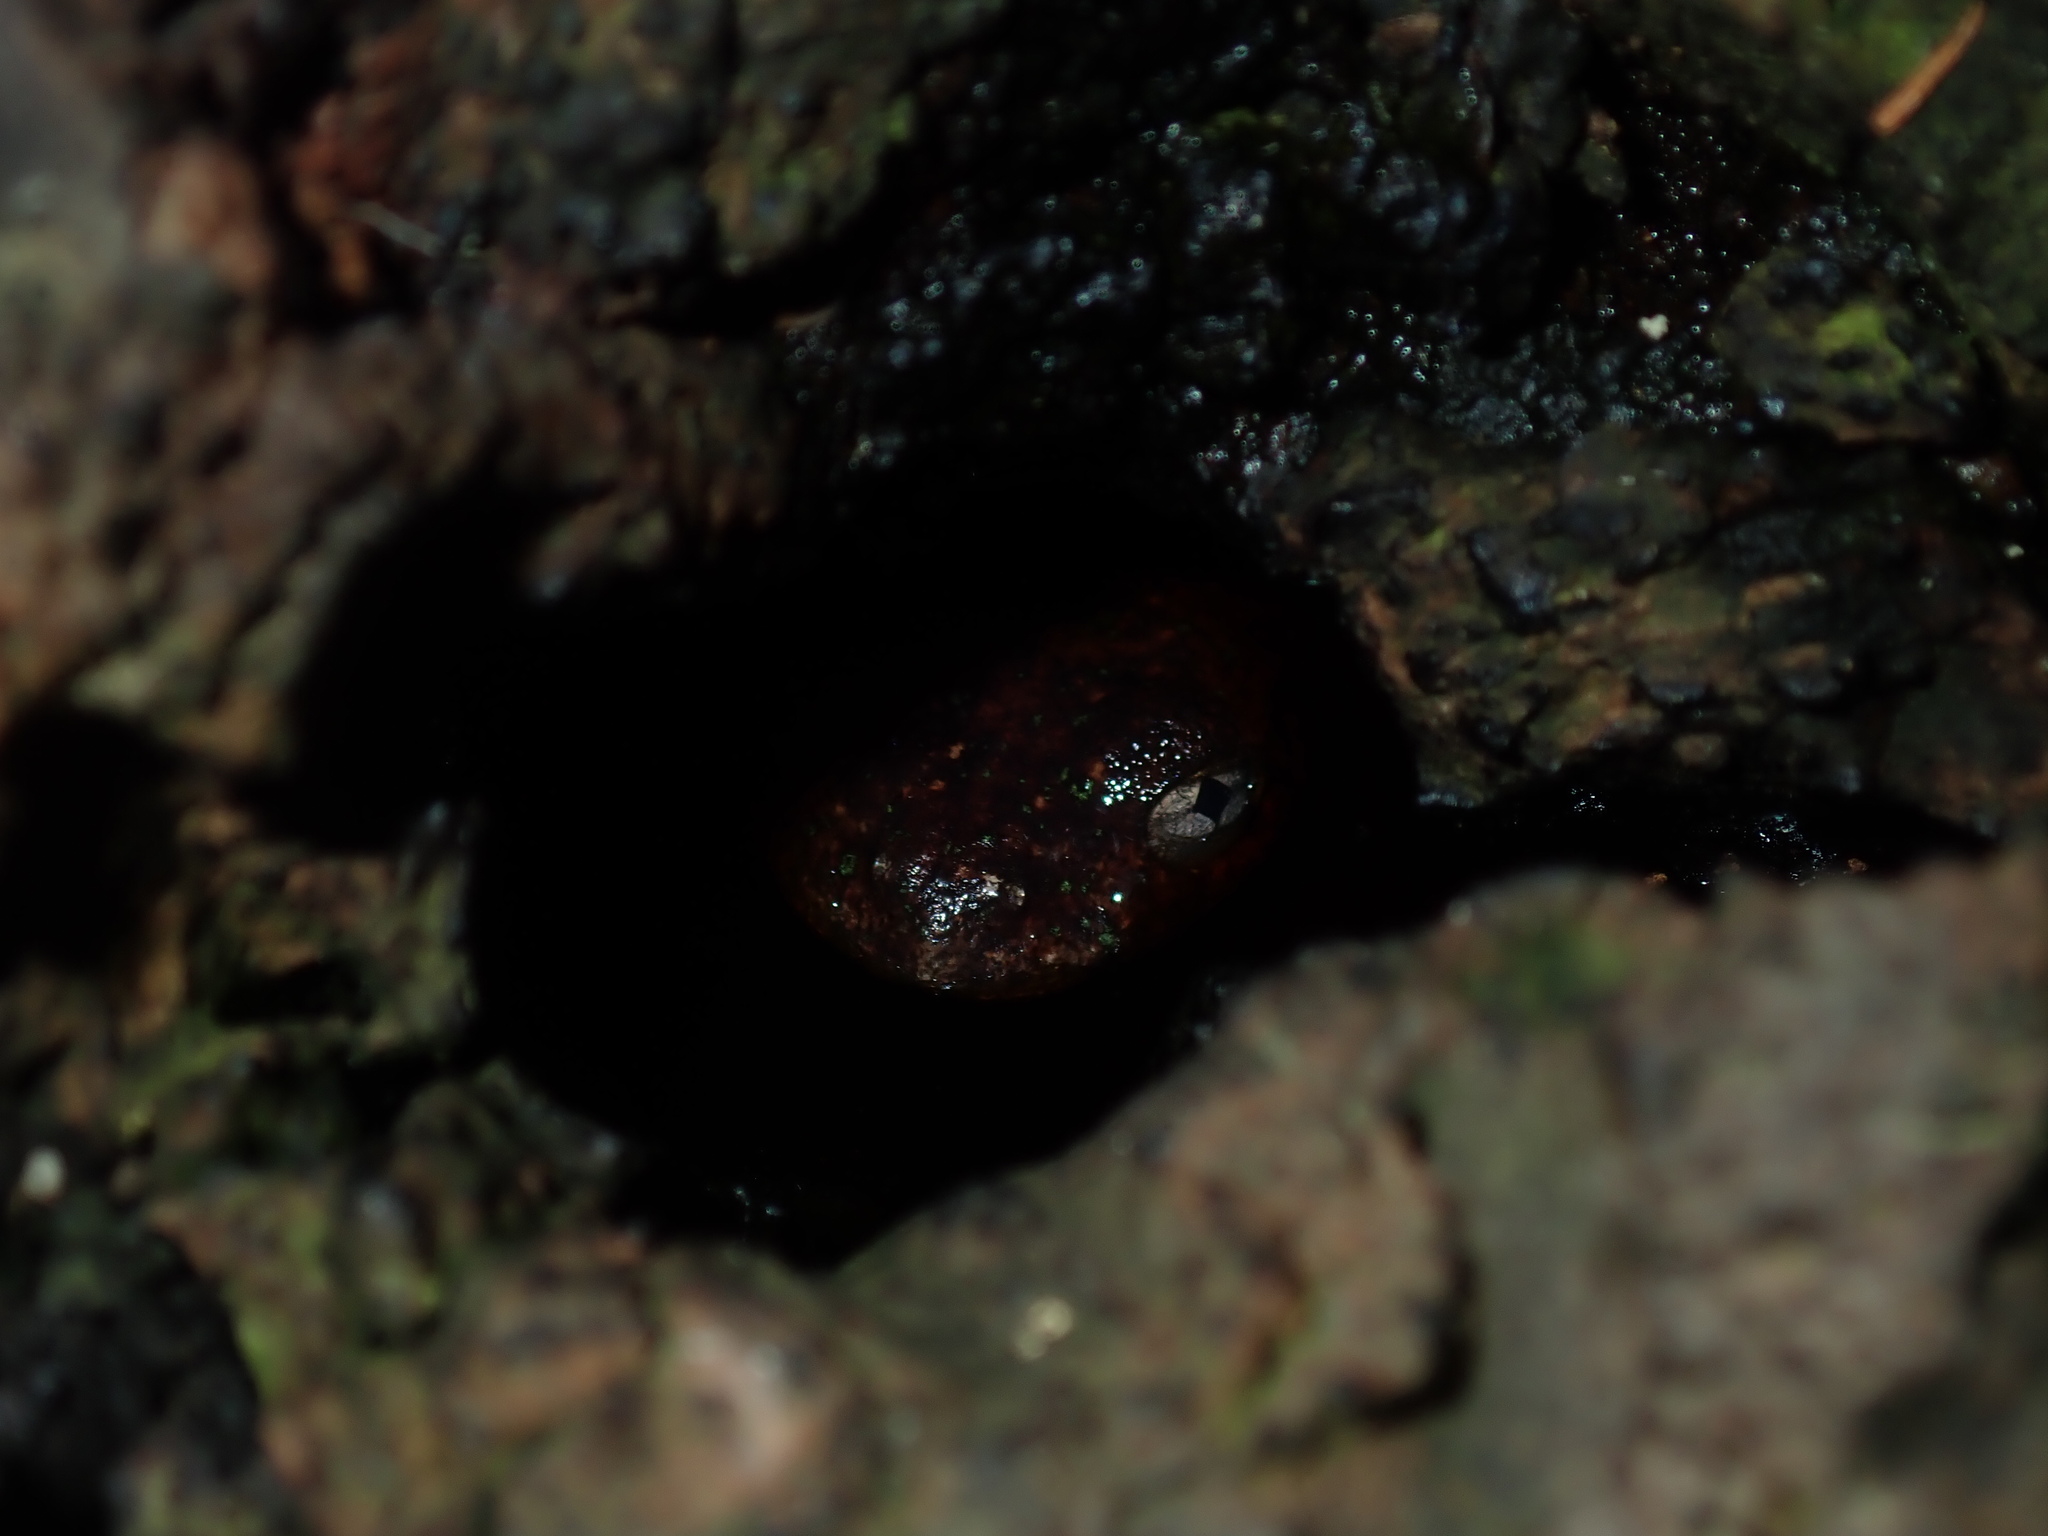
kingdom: Animalia
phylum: Chordata
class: Amphibia
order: Anura
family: Pelodryadidae
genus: Litoria
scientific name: Litoria peronii
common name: Emerald spotted treefrog
